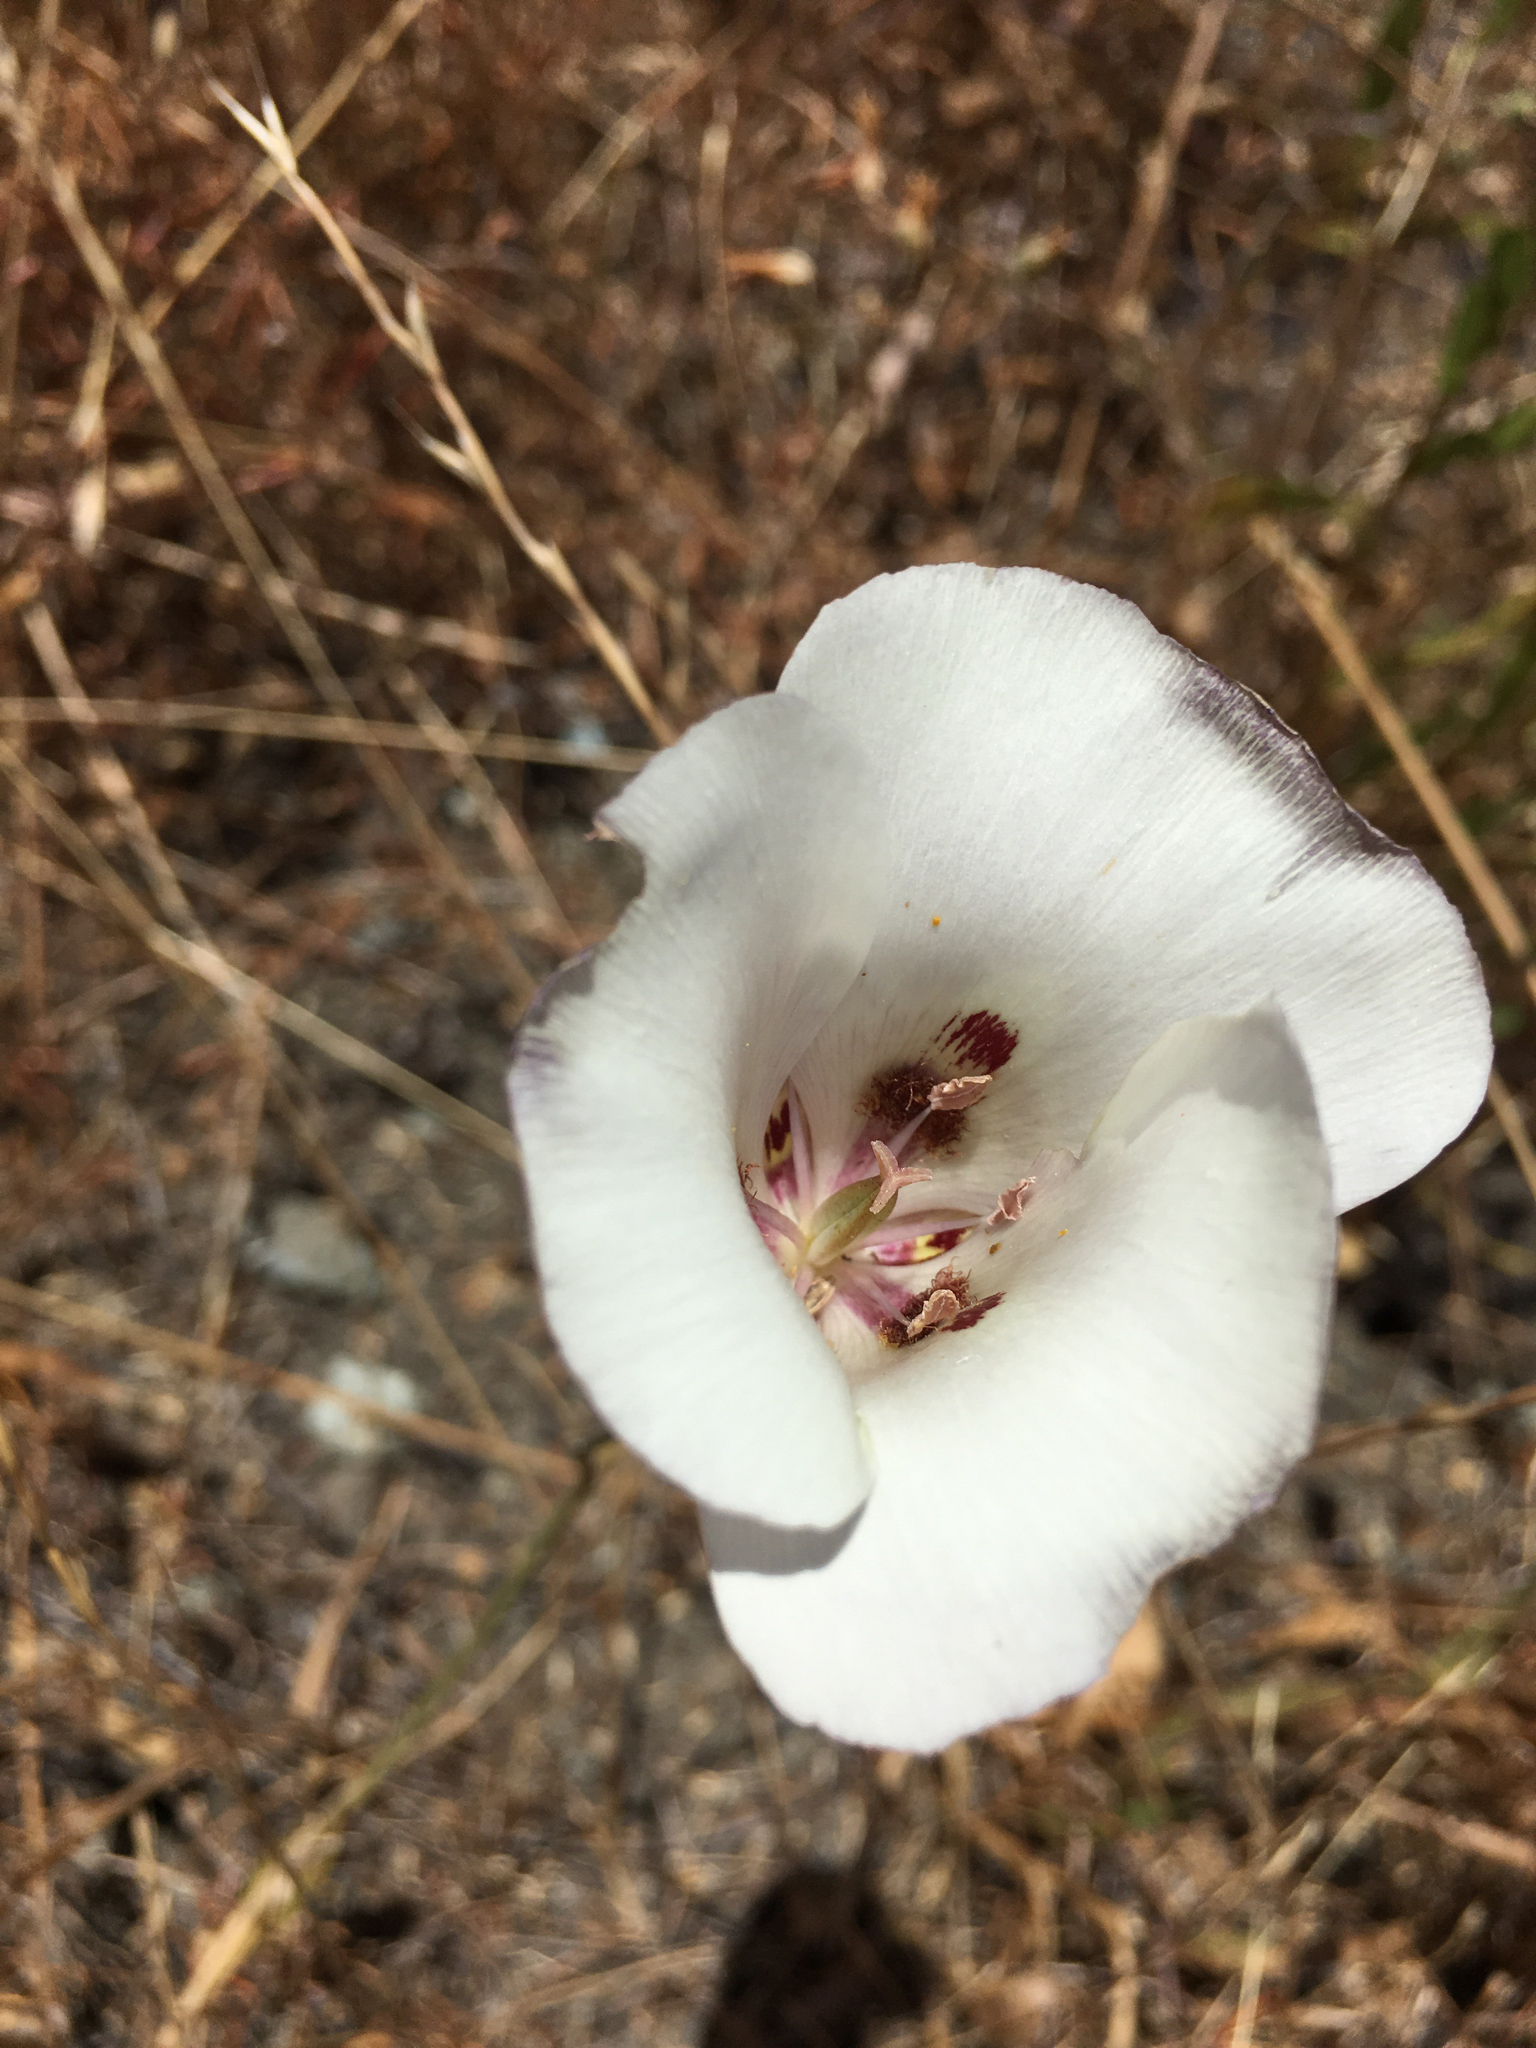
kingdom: Plantae
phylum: Tracheophyta
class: Liliopsida
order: Liliales
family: Liliaceae
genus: Calochortus
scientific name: Calochortus argillosus
